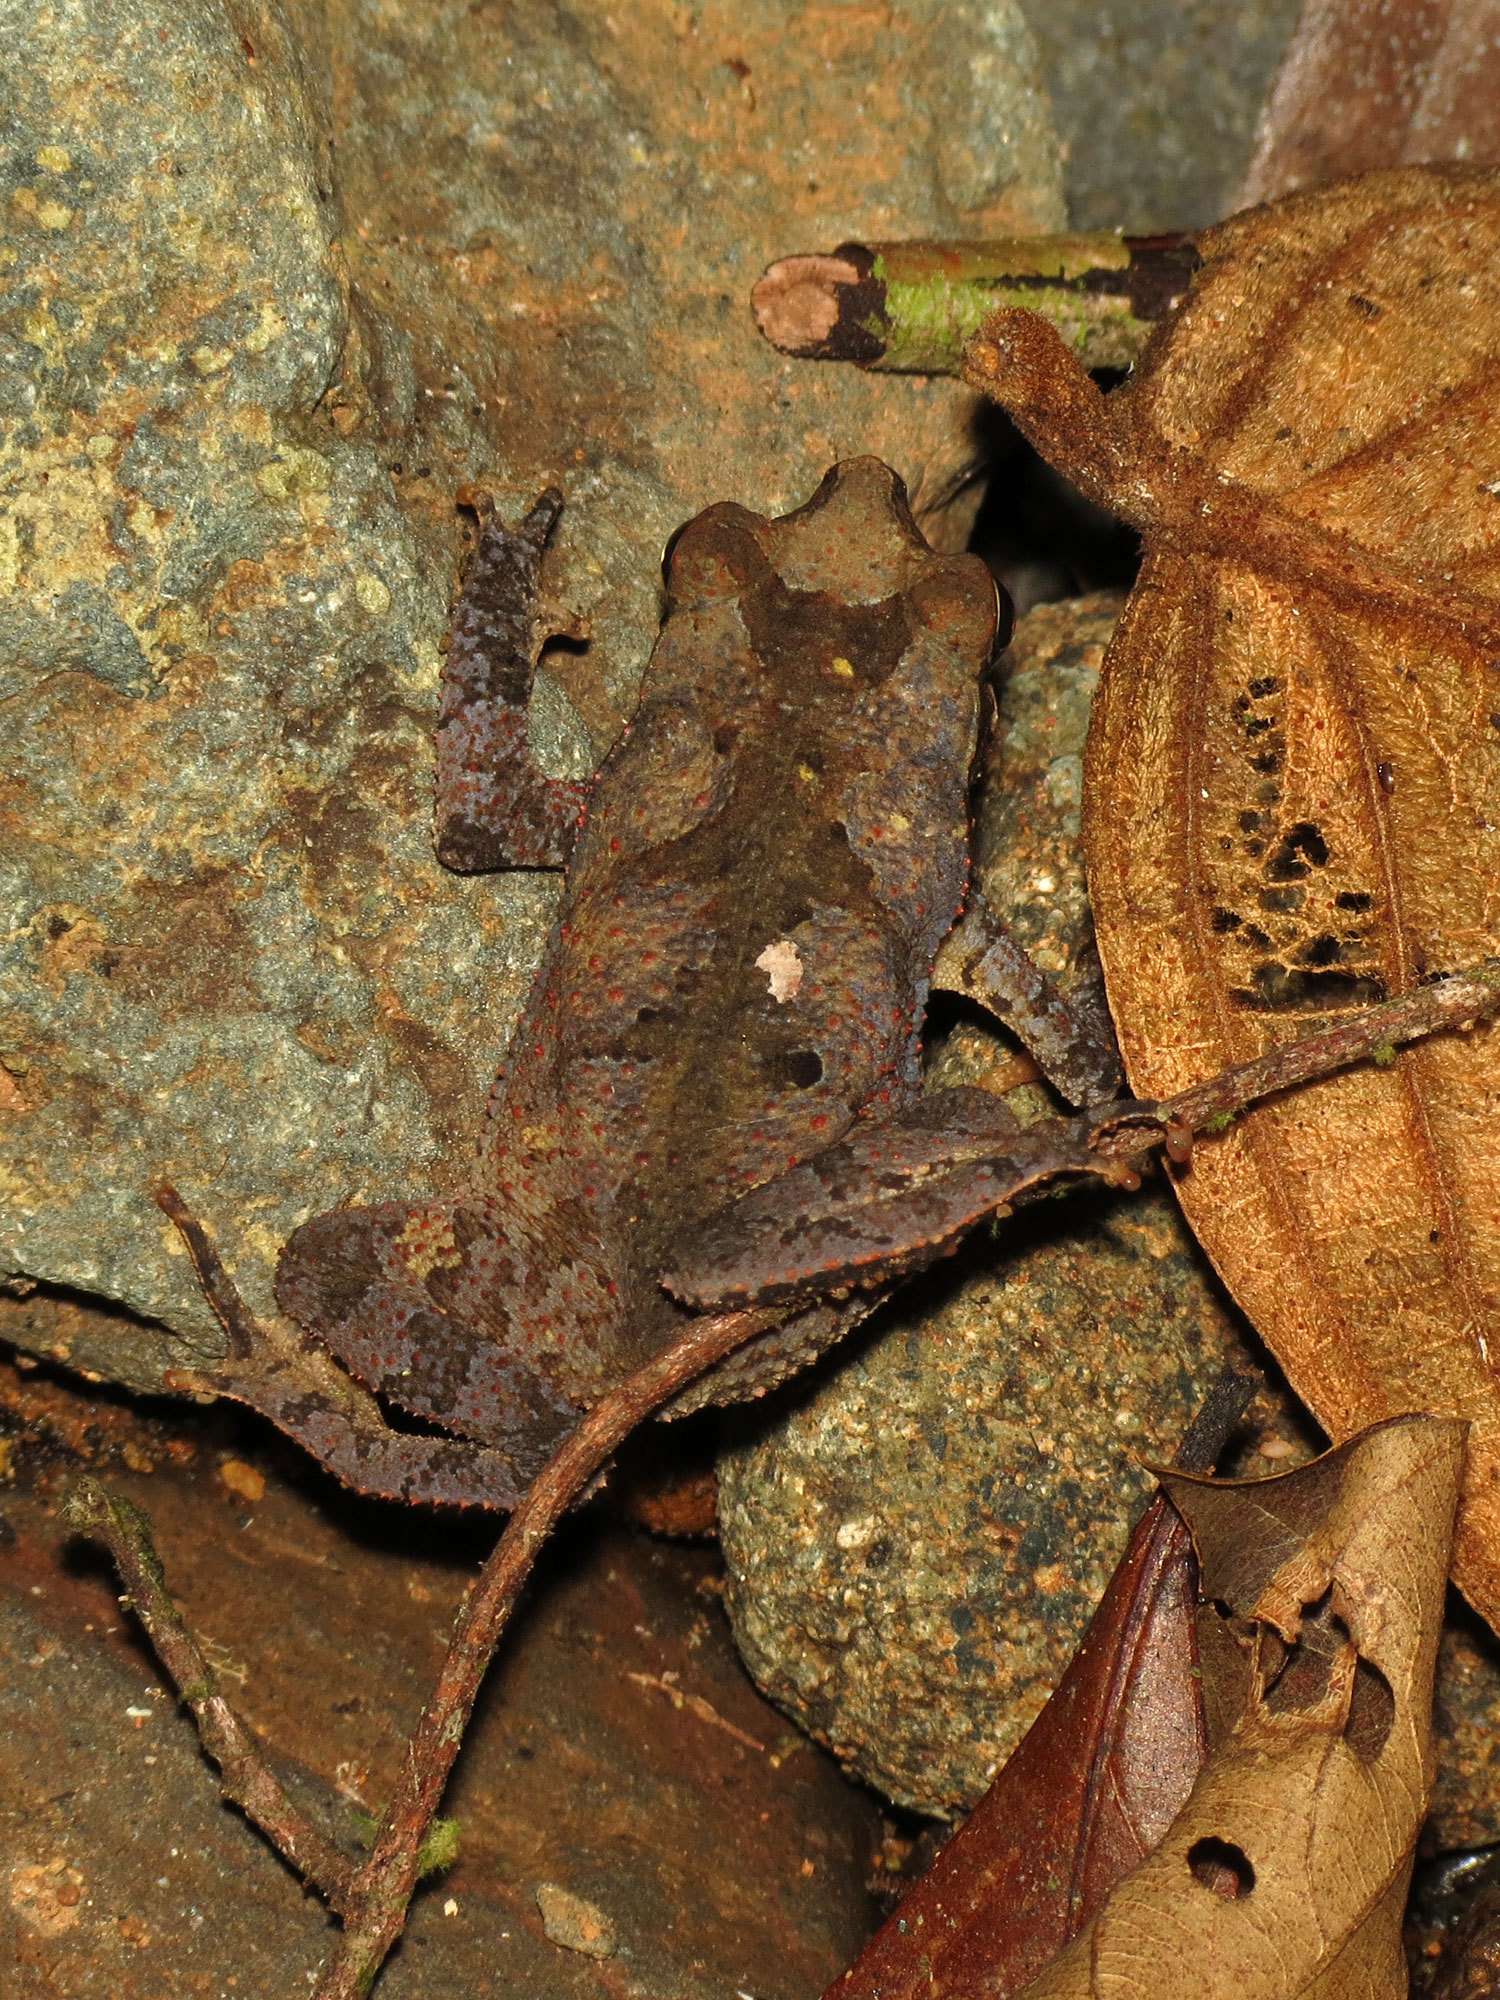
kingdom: Animalia
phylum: Chordata
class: Amphibia
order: Anura
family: Bufonidae
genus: Rhinella
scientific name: Rhinella alata
